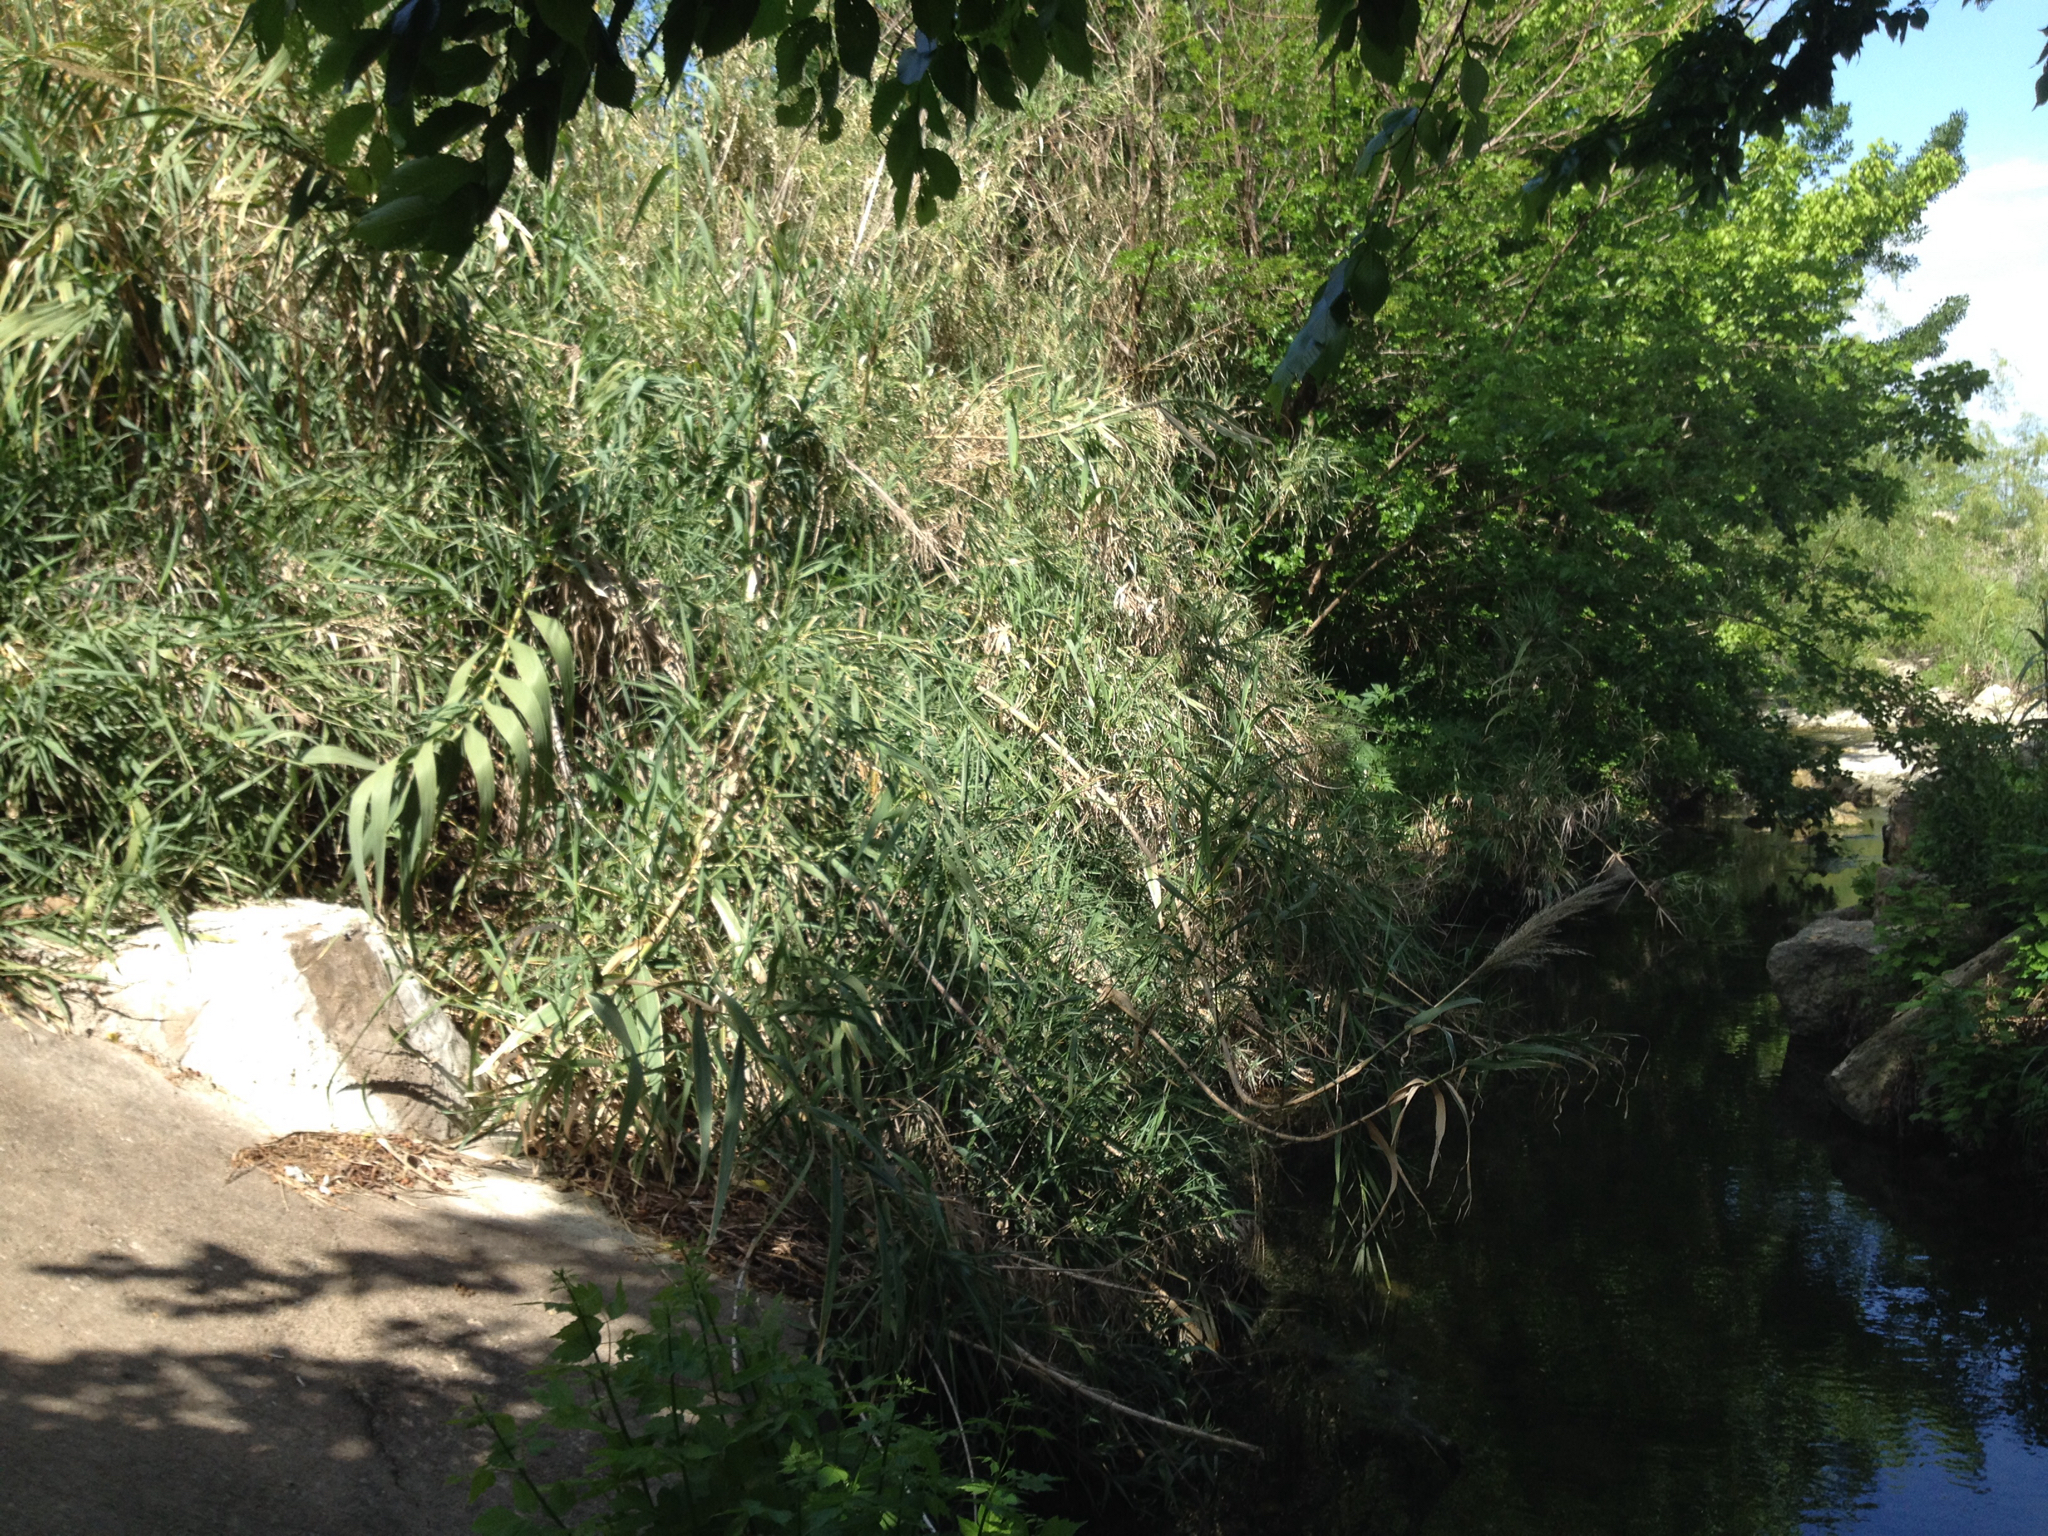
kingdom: Plantae
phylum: Tracheophyta
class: Liliopsida
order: Poales
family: Poaceae
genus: Arundo
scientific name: Arundo donax
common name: Giant reed
